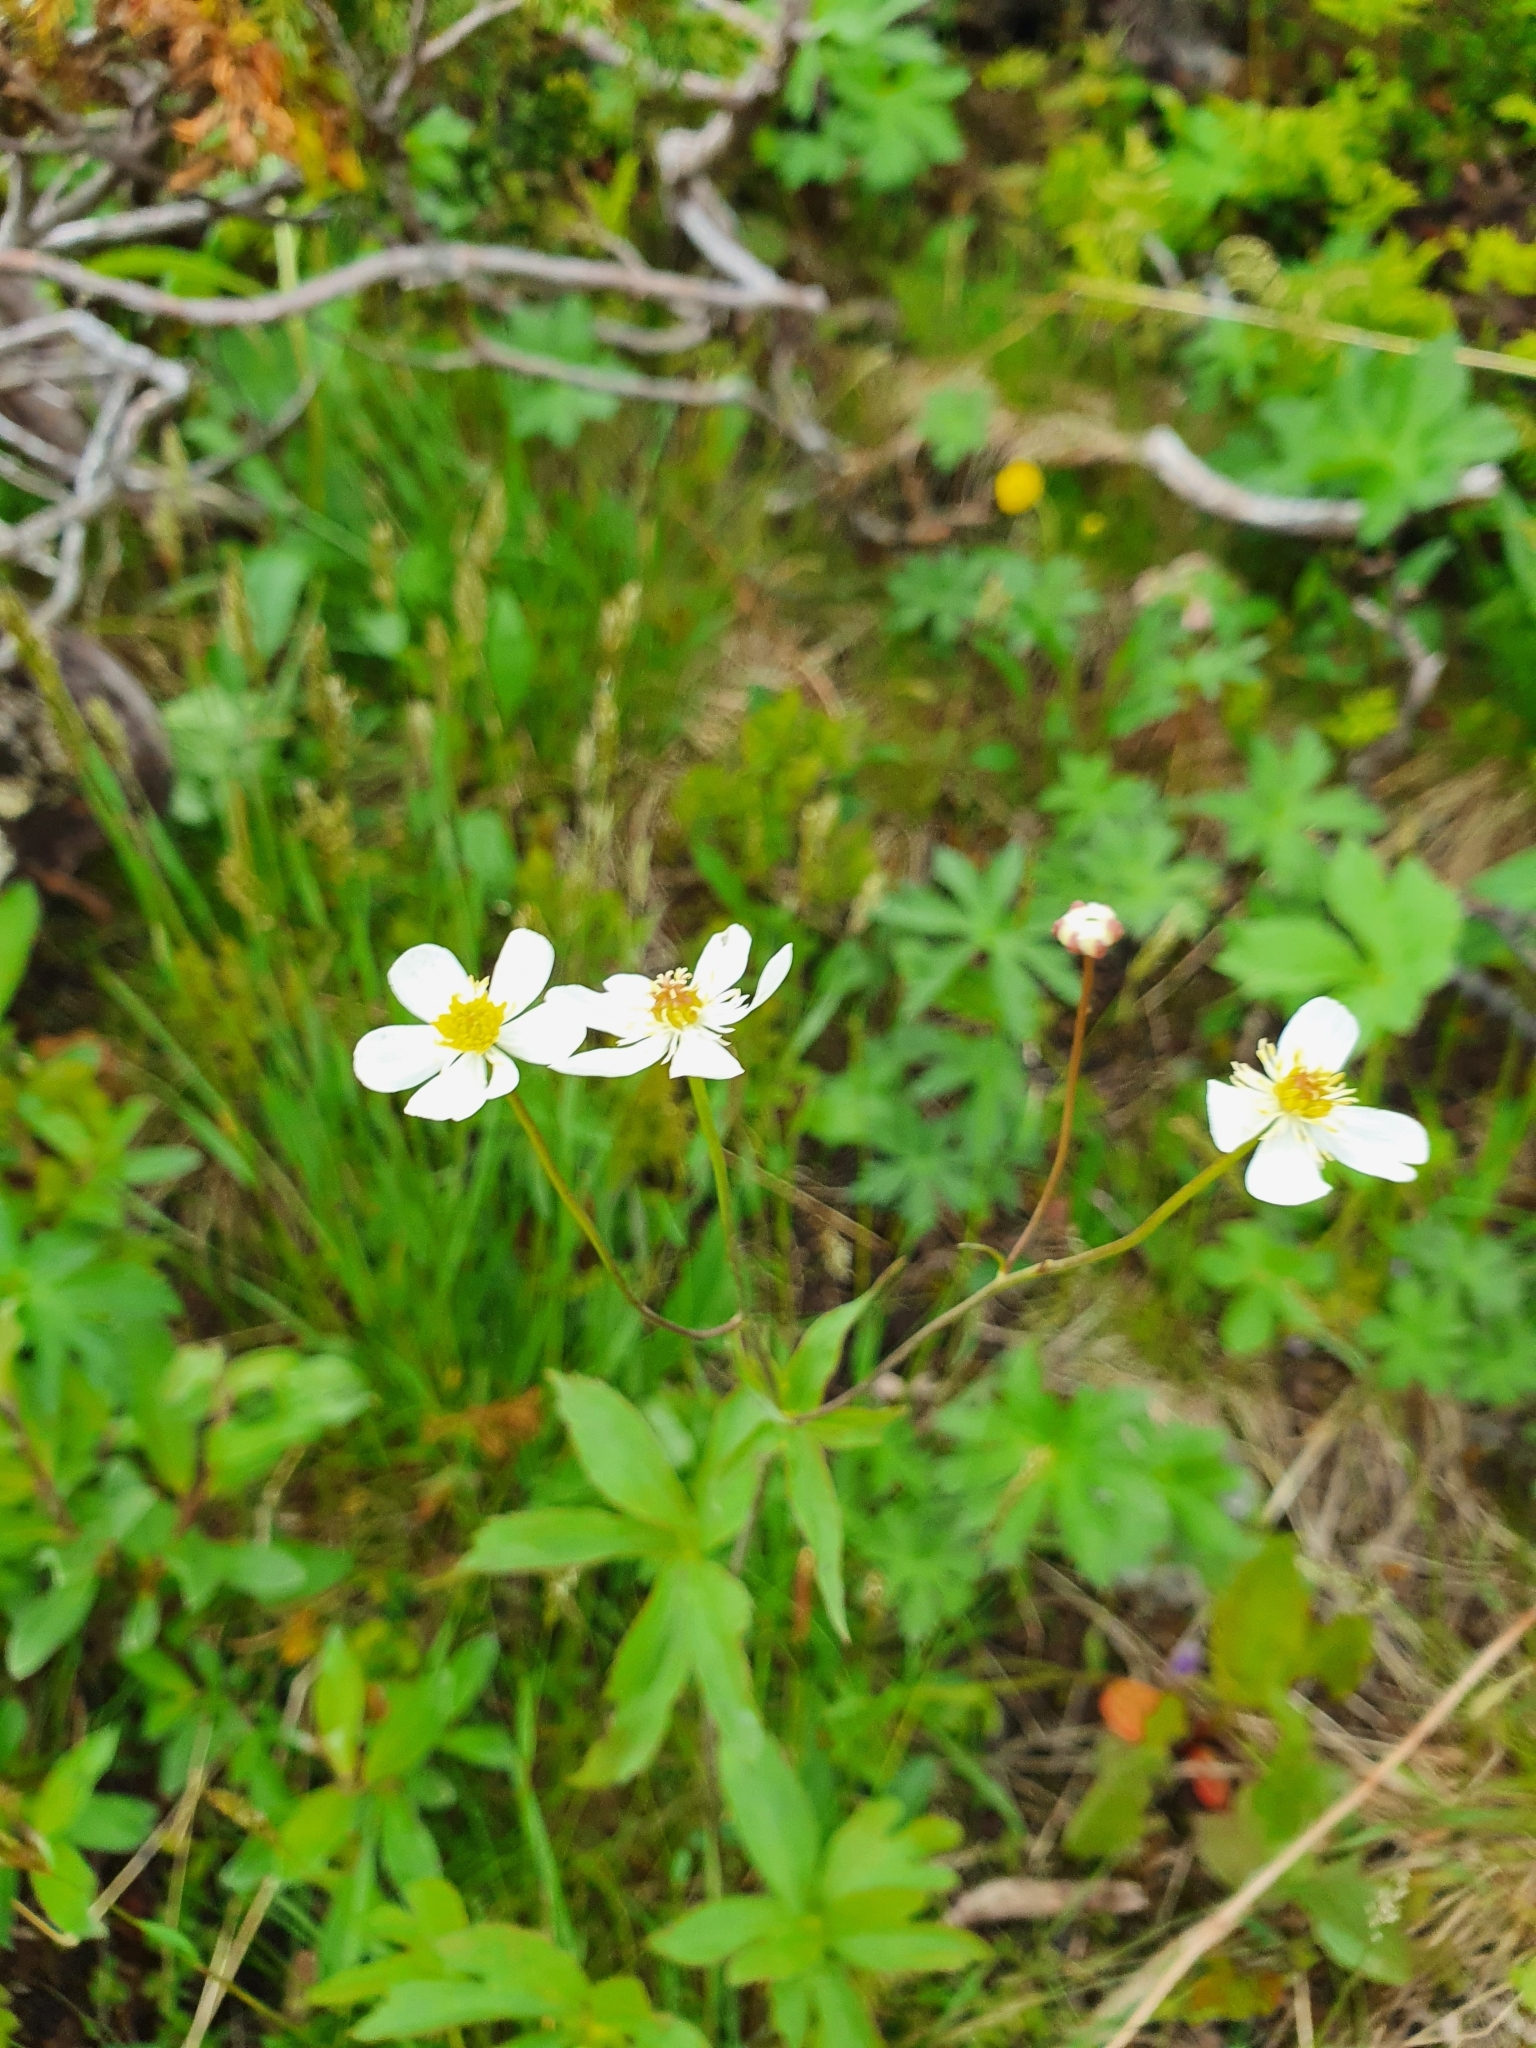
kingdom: Plantae
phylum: Tracheophyta
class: Magnoliopsida
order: Ranunculales
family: Ranunculaceae
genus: Ranunculus
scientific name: Ranunculus platanifolius
